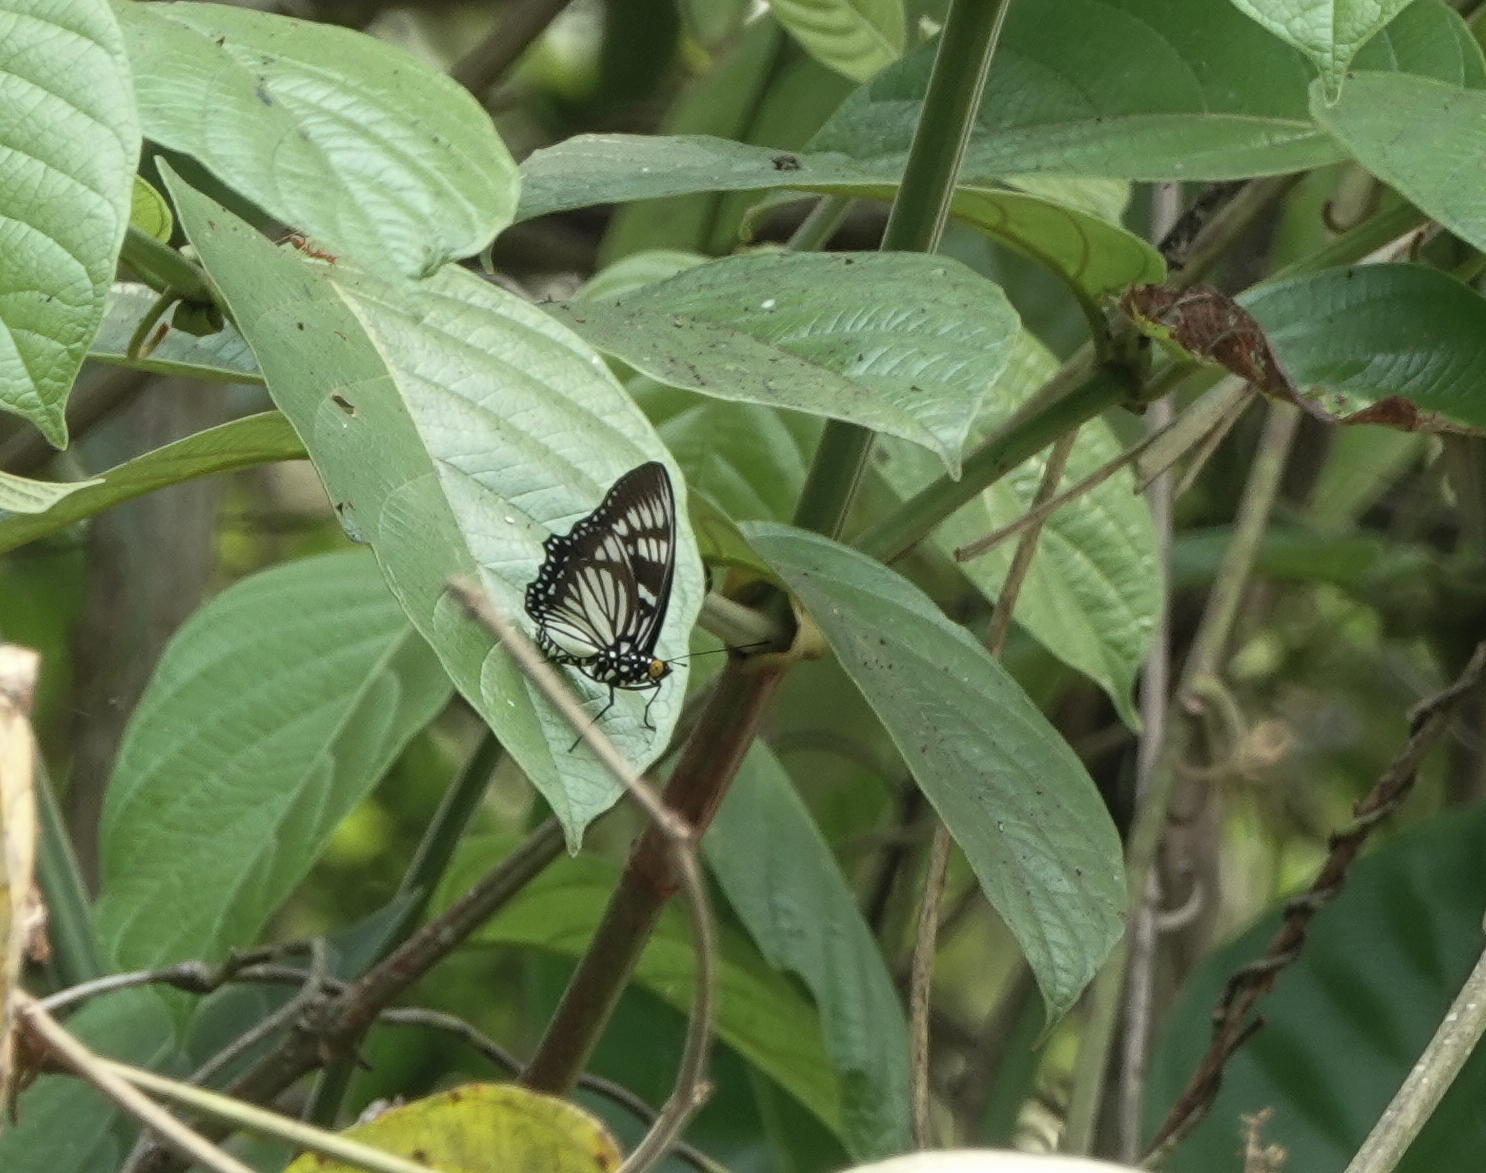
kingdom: Animalia
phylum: Arthropoda
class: Insecta
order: Lepidoptera
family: Nymphalidae
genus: Euripus
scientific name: Euripus nyctelius
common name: Courtesan
